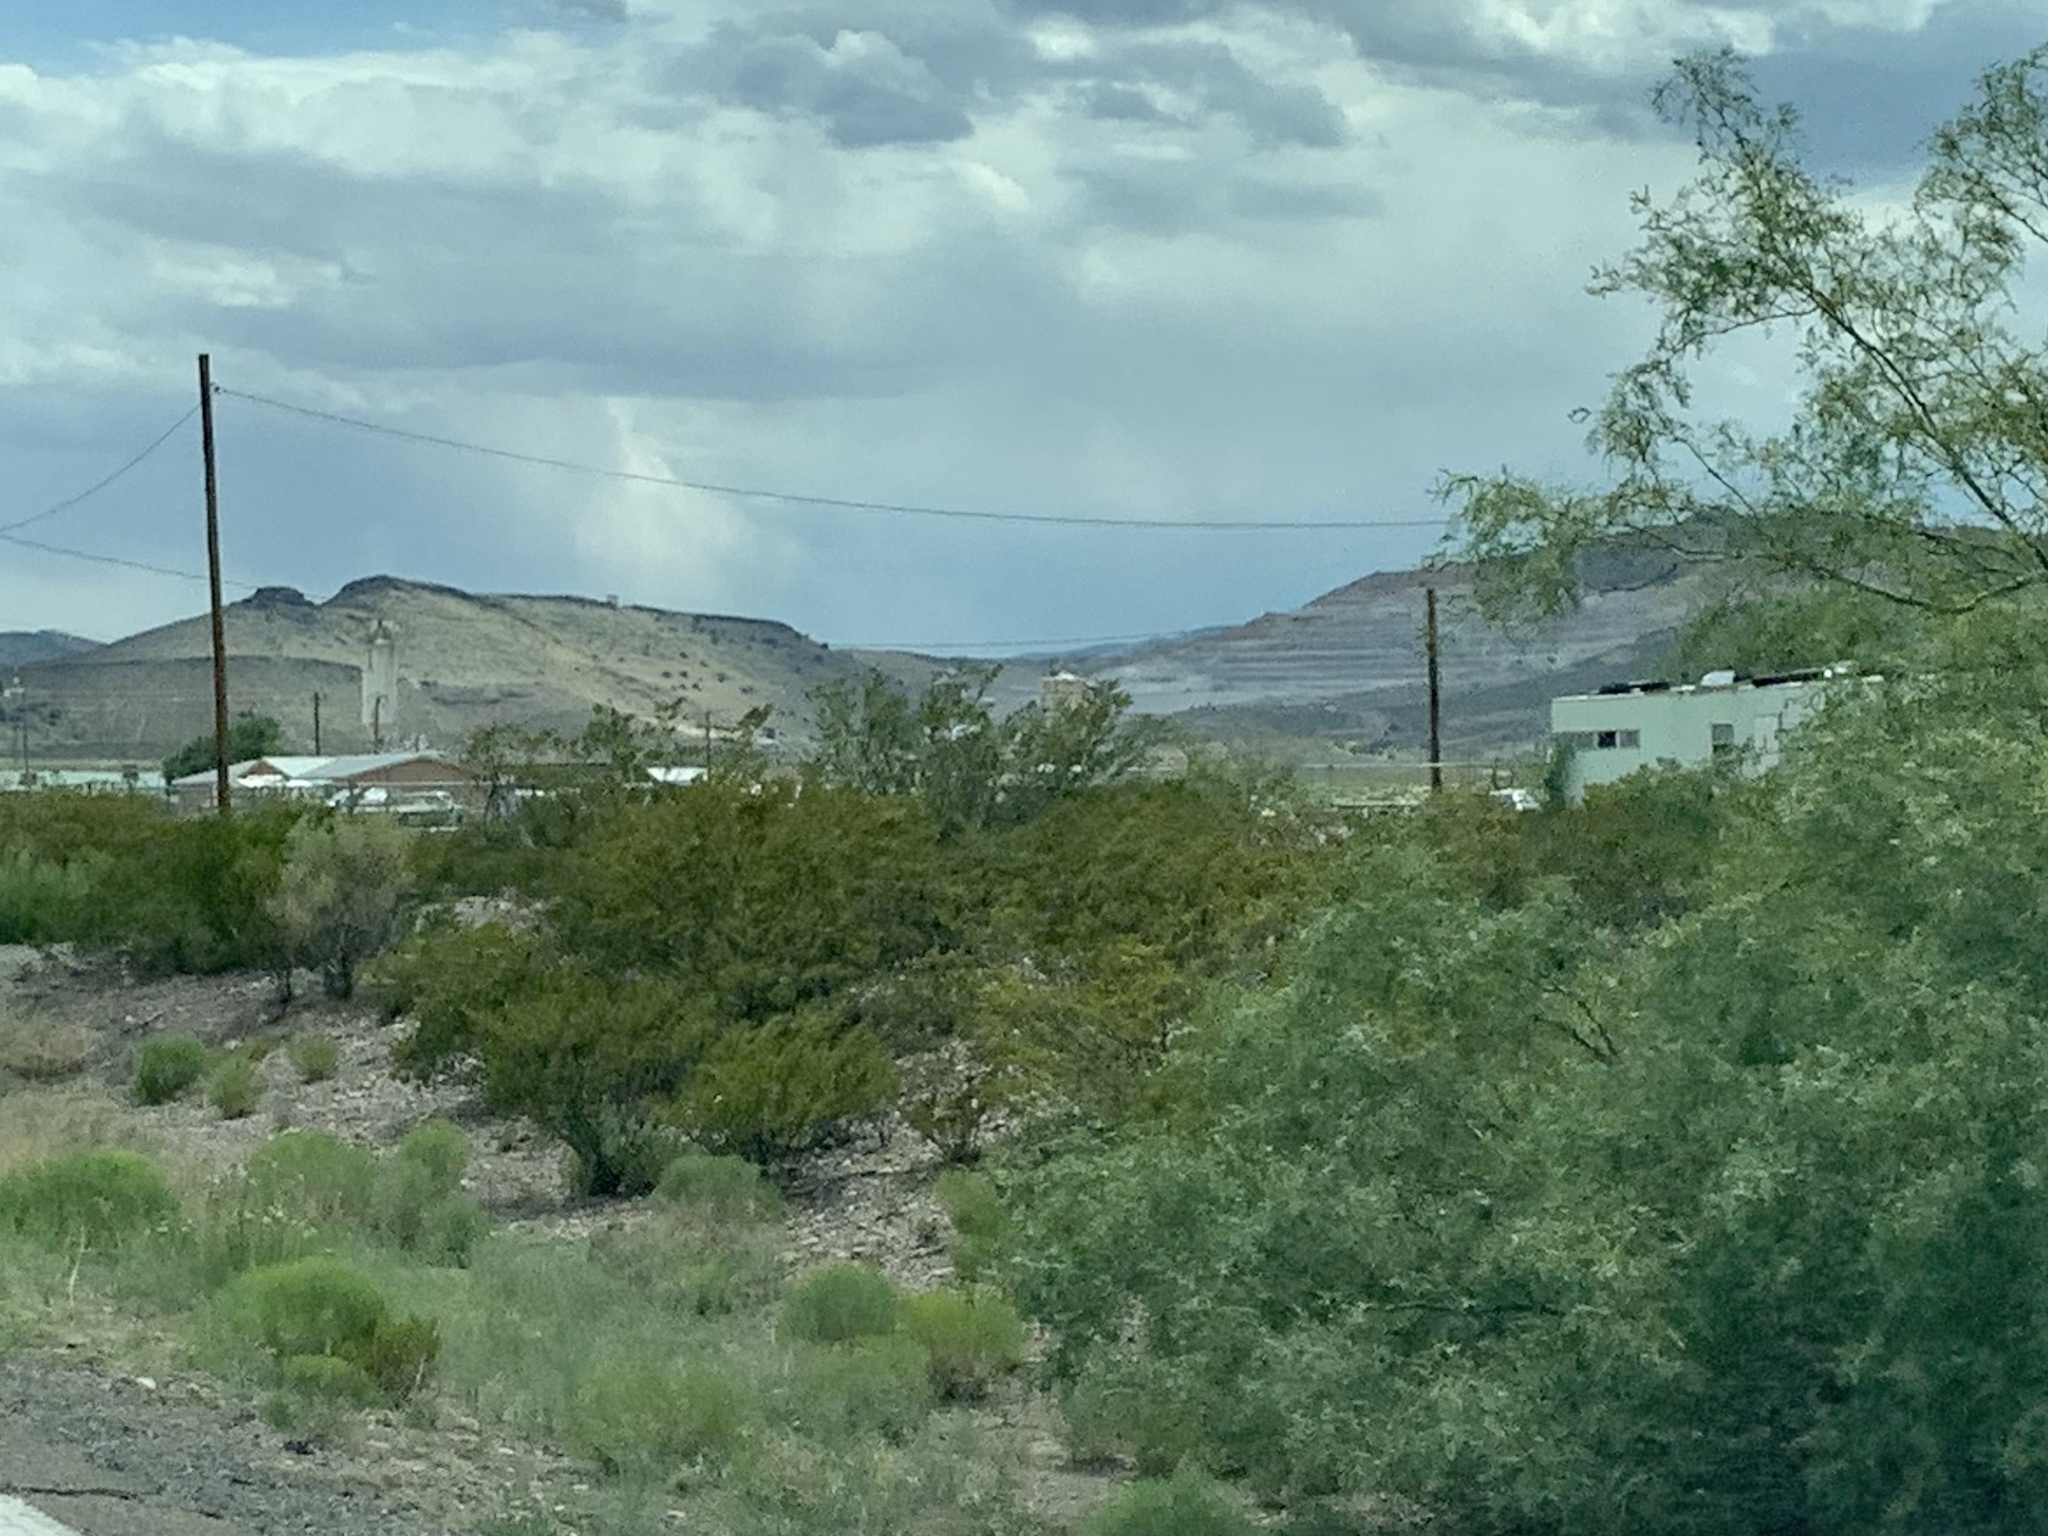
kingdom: Plantae
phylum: Tracheophyta
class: Magnoliopsida
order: Zygophyllales
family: Zygophyllaceae
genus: Larrea
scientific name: Larrea tridentata
